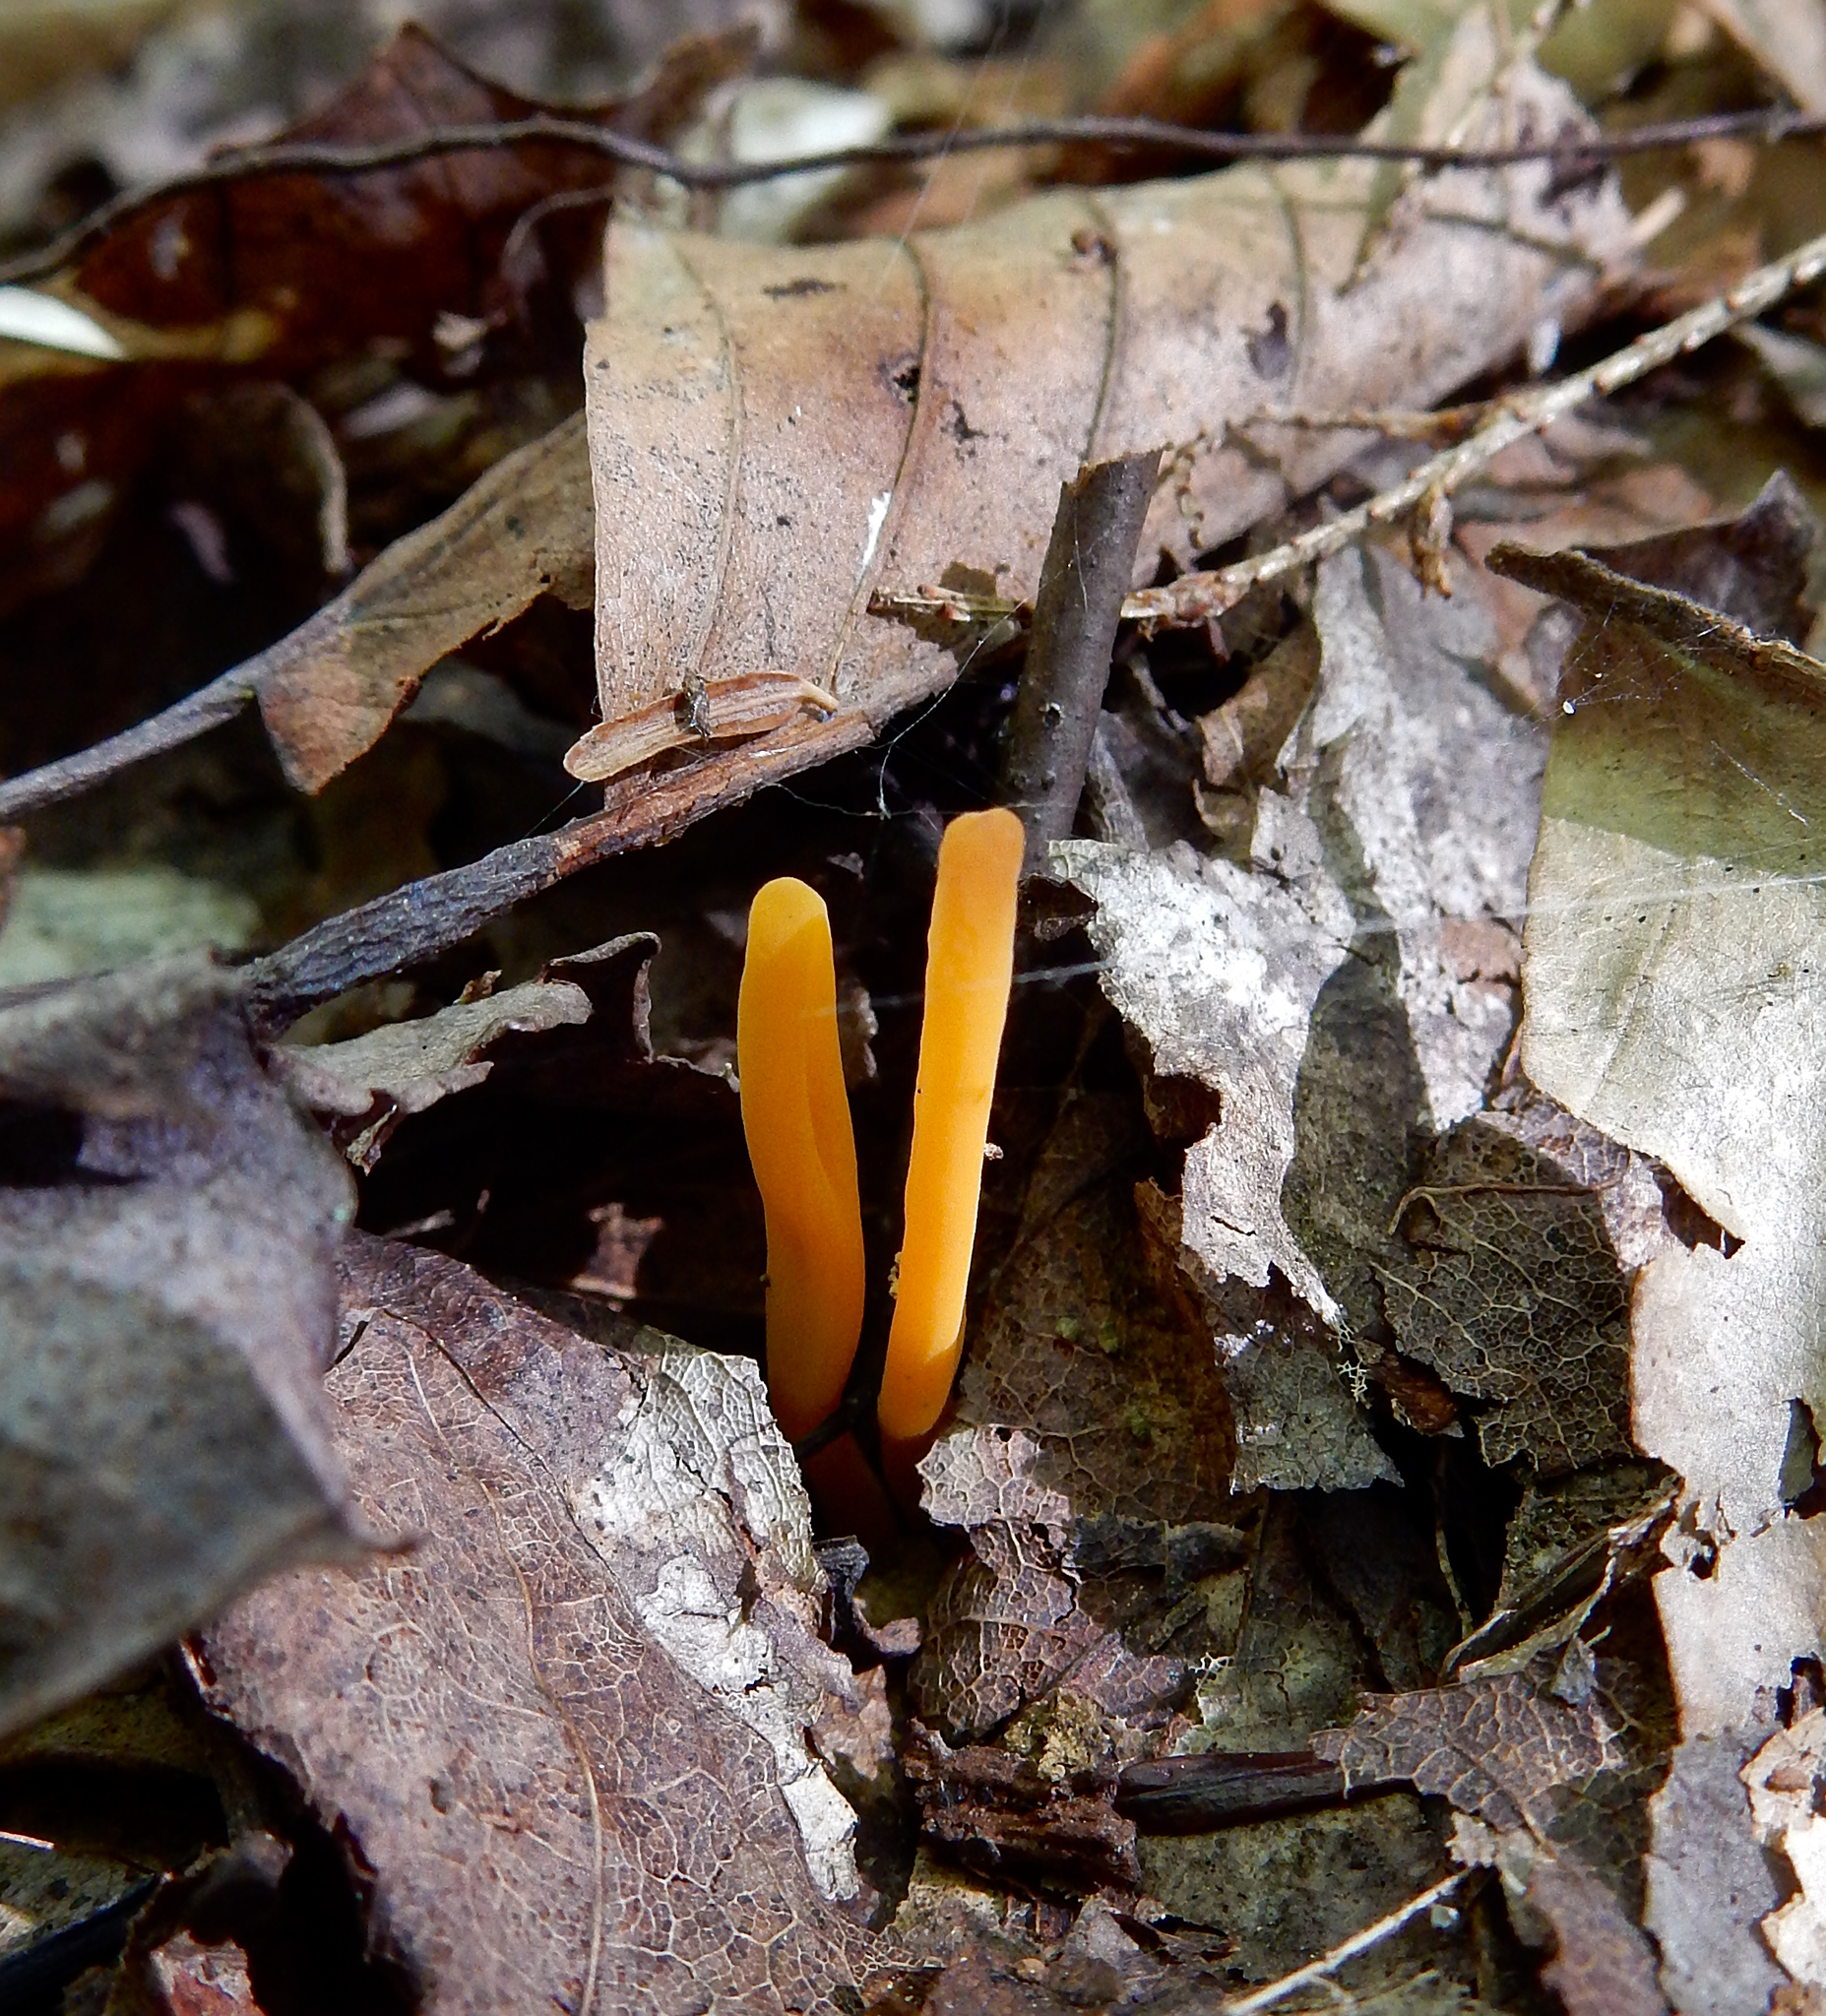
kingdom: Fungi
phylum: Basidiomycota
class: Agaricomycetes
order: Agaricales
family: Clavariaceae
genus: Clavulinopsis
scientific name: Clavulinopsis laeticolor
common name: Handsome club
